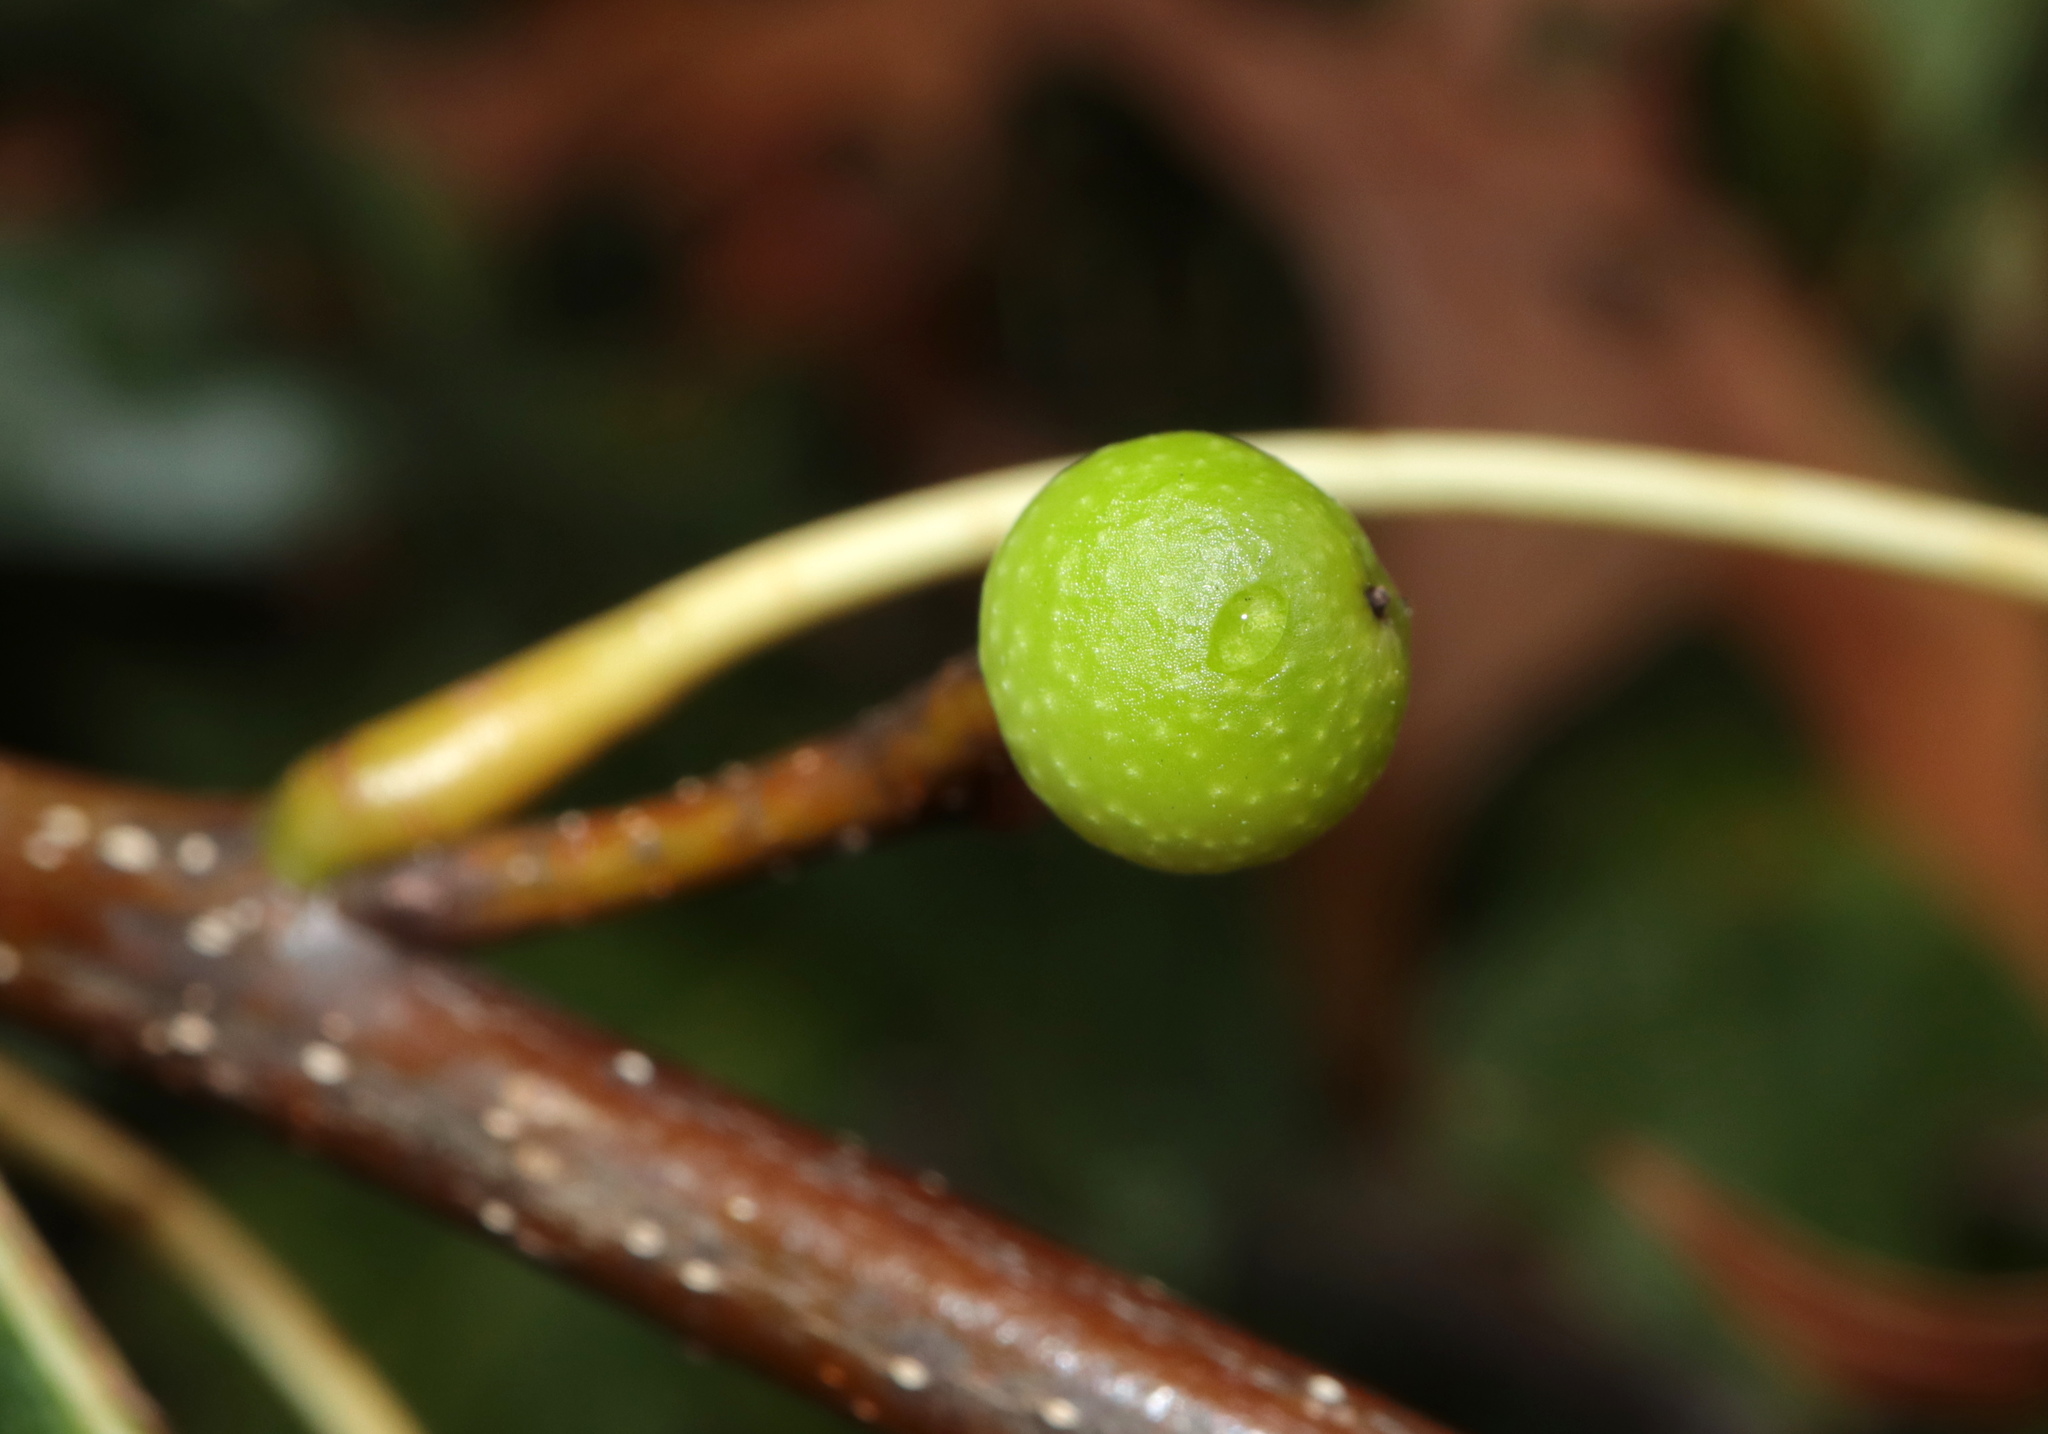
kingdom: Animalia
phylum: Arthropoda
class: Insecta
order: Hymenoptera
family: Cynipidae
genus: Callirhytis
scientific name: Callirhytis
